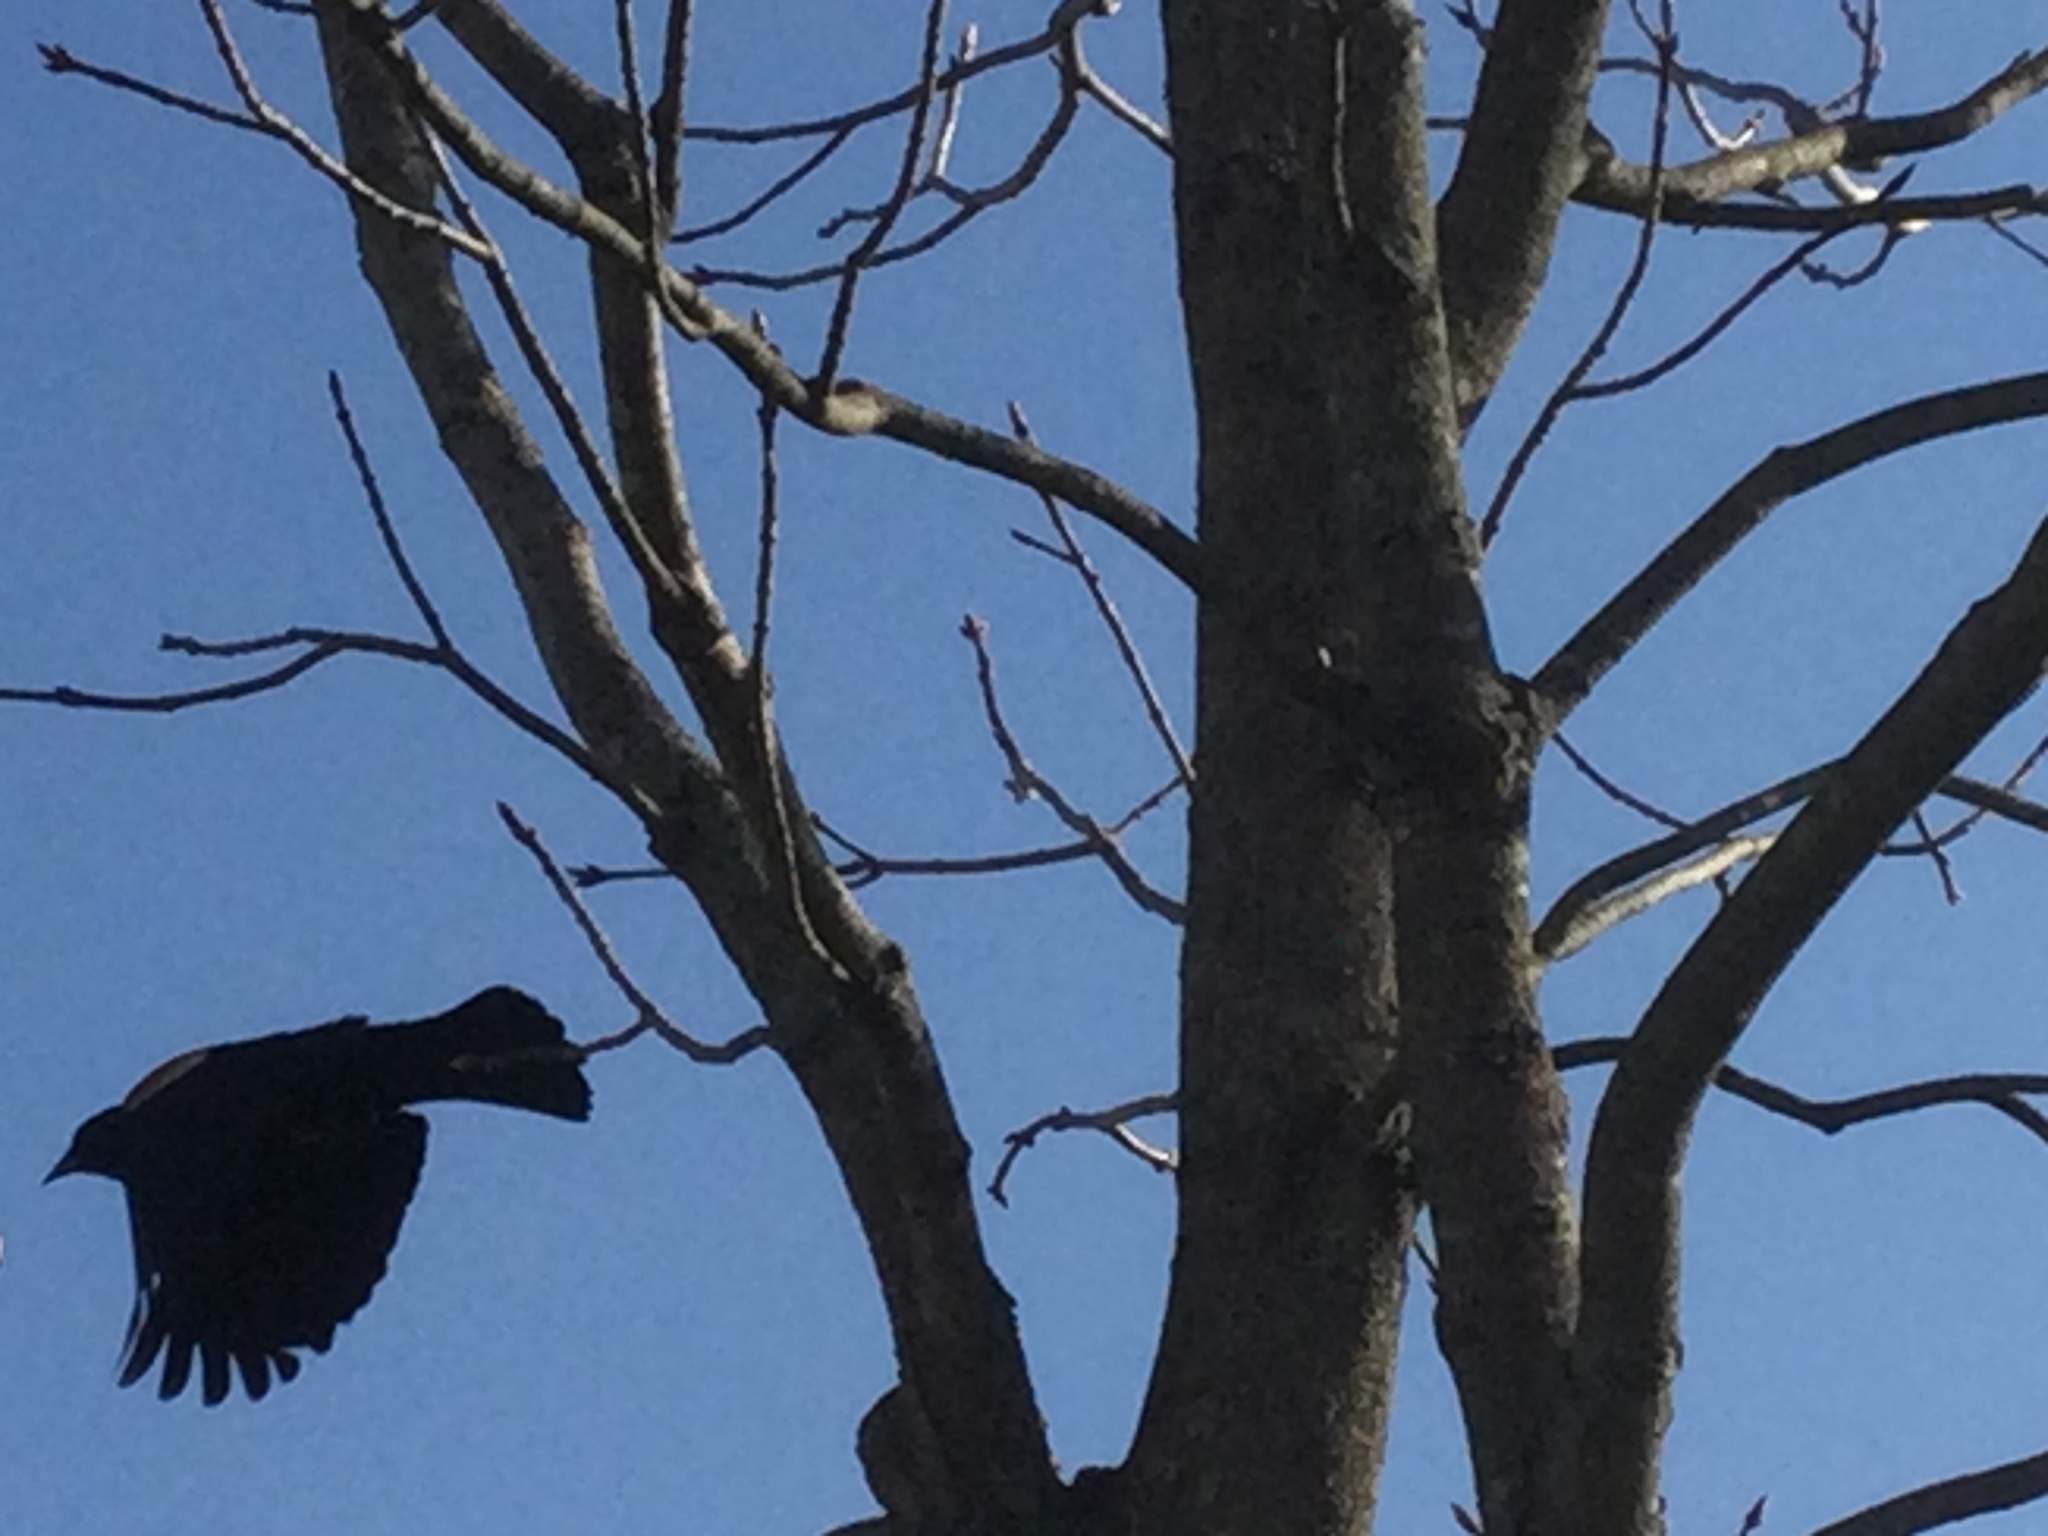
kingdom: Animalia
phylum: Chordata
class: Aves
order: Passeriformes
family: Icteridae
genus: Agelaius
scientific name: Agelaius phoeniceus
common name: Red-winged blackbird
